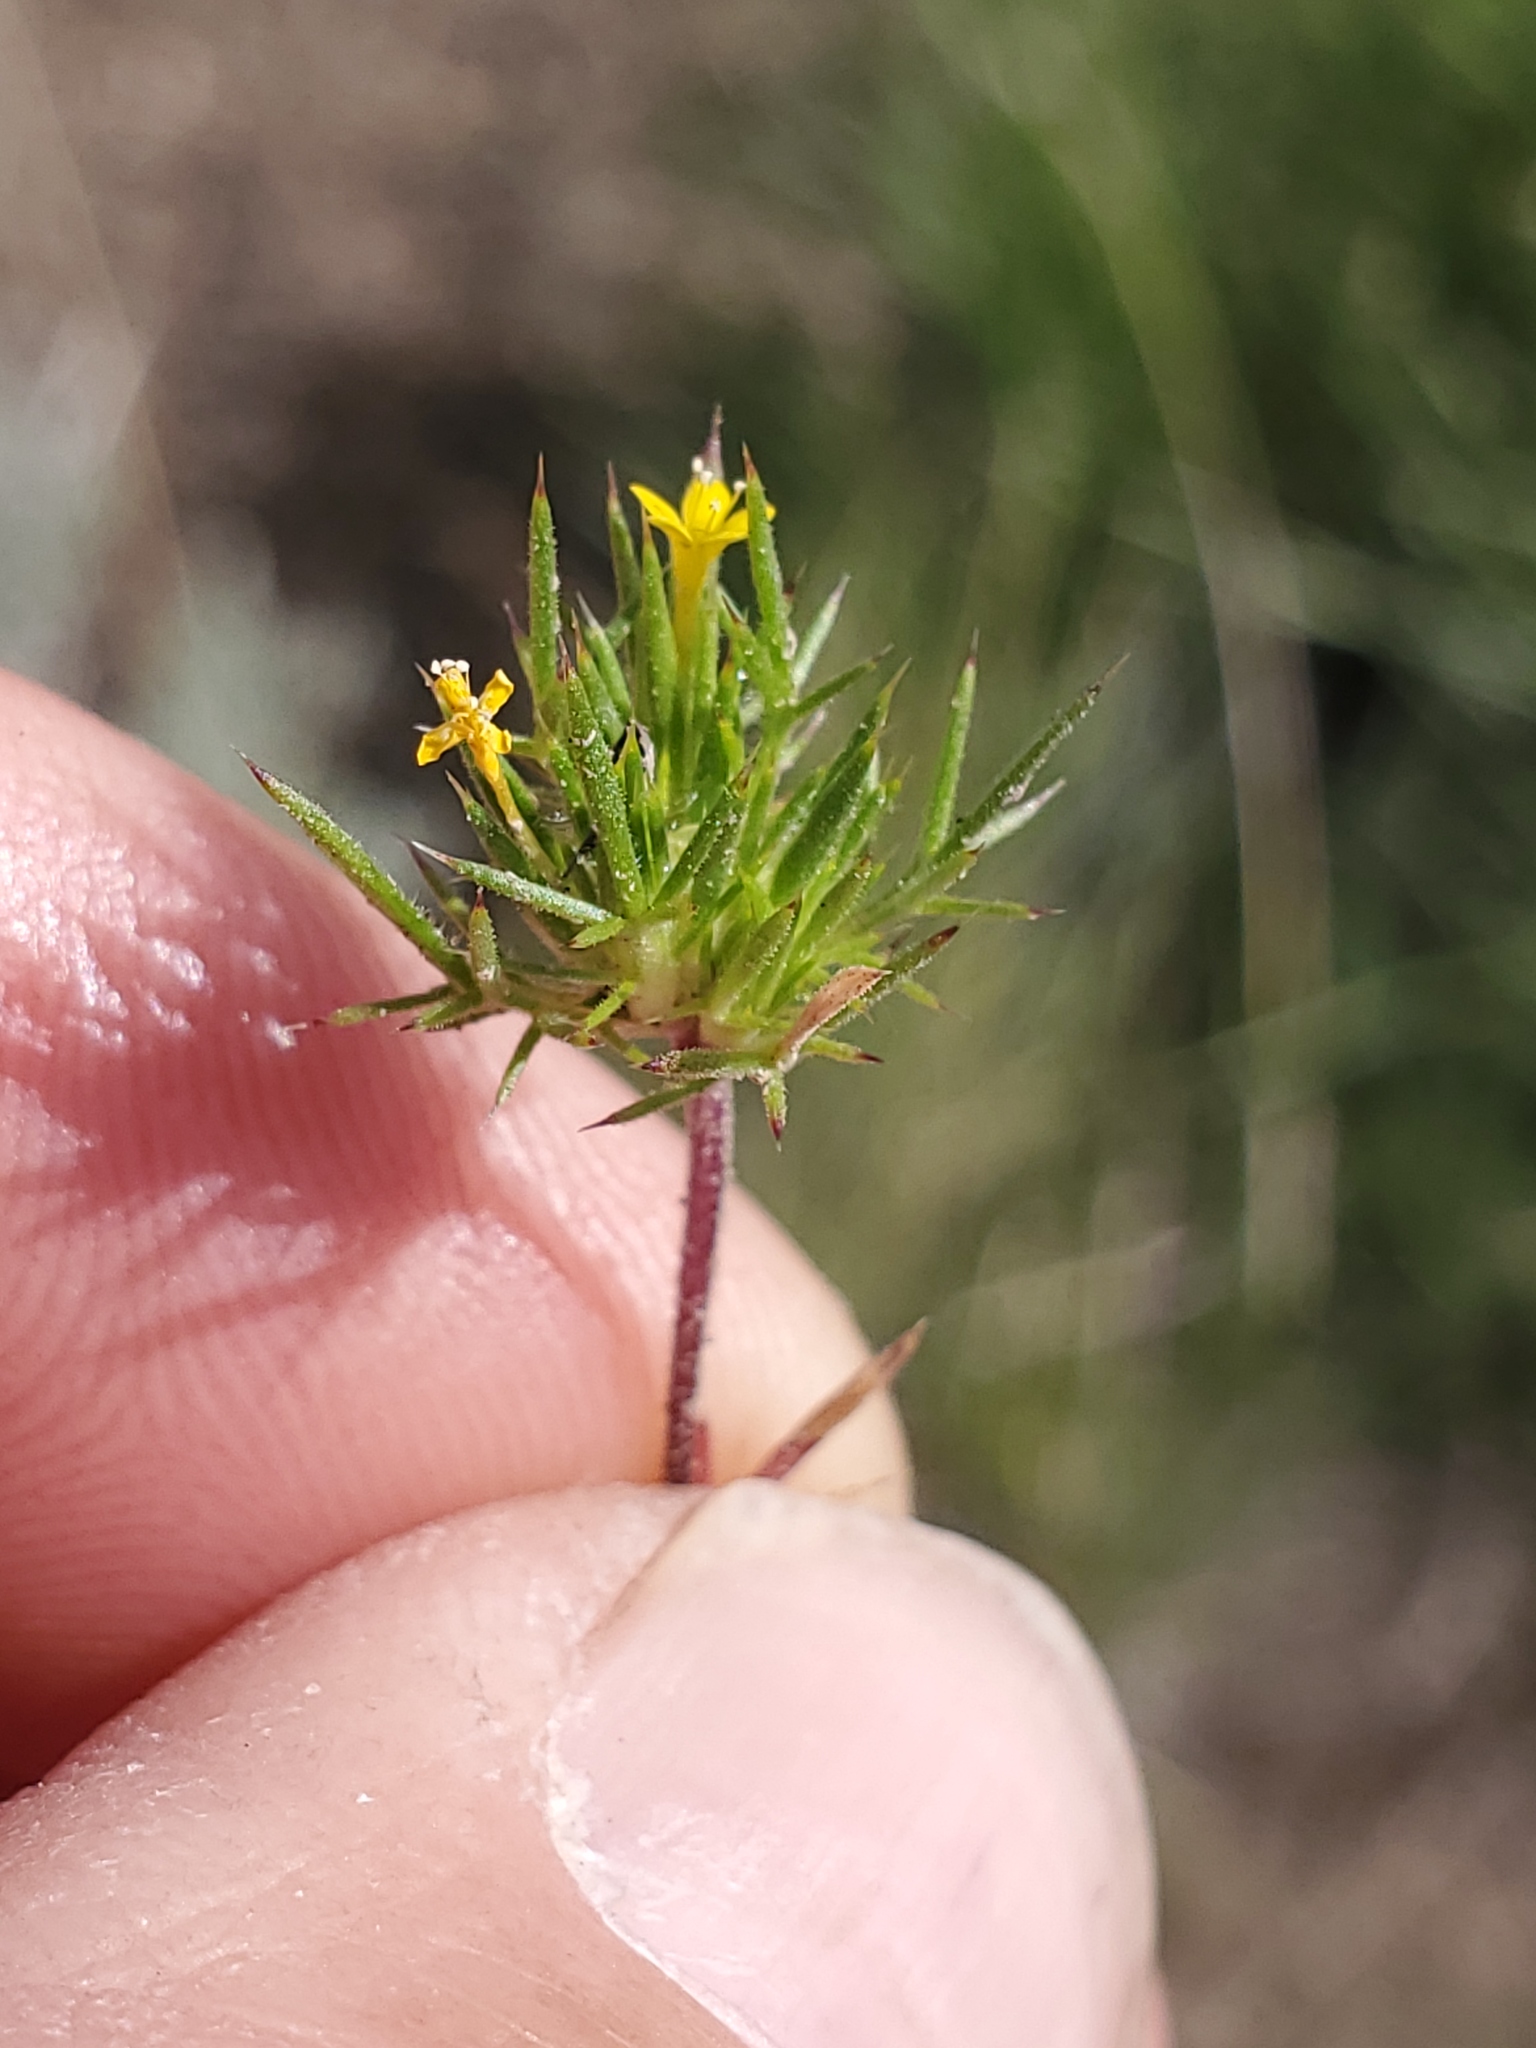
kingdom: Plantae
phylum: Tracheophyta
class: Magnoliopsida
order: Ericales
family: Polemoniaceae
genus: Navarretia
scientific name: Navarretia breweri
